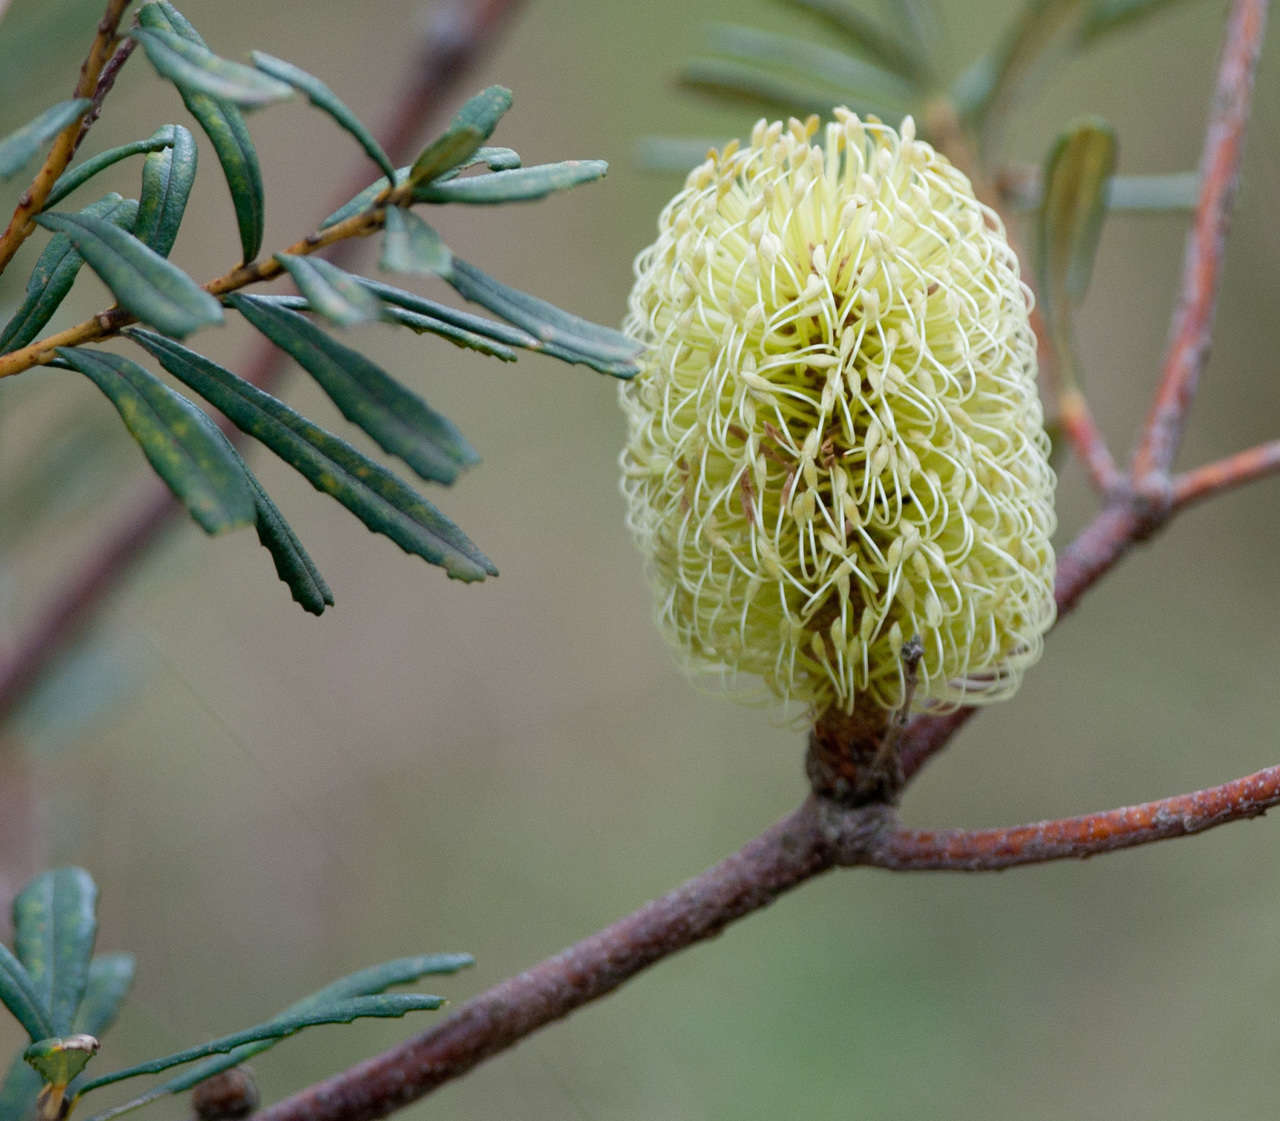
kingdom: Plantae
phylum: Tracheophyta
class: Magnoliopsida
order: Proteales
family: Proteaceae
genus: Banksia
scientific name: Banksia marginata
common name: Silver banksia
